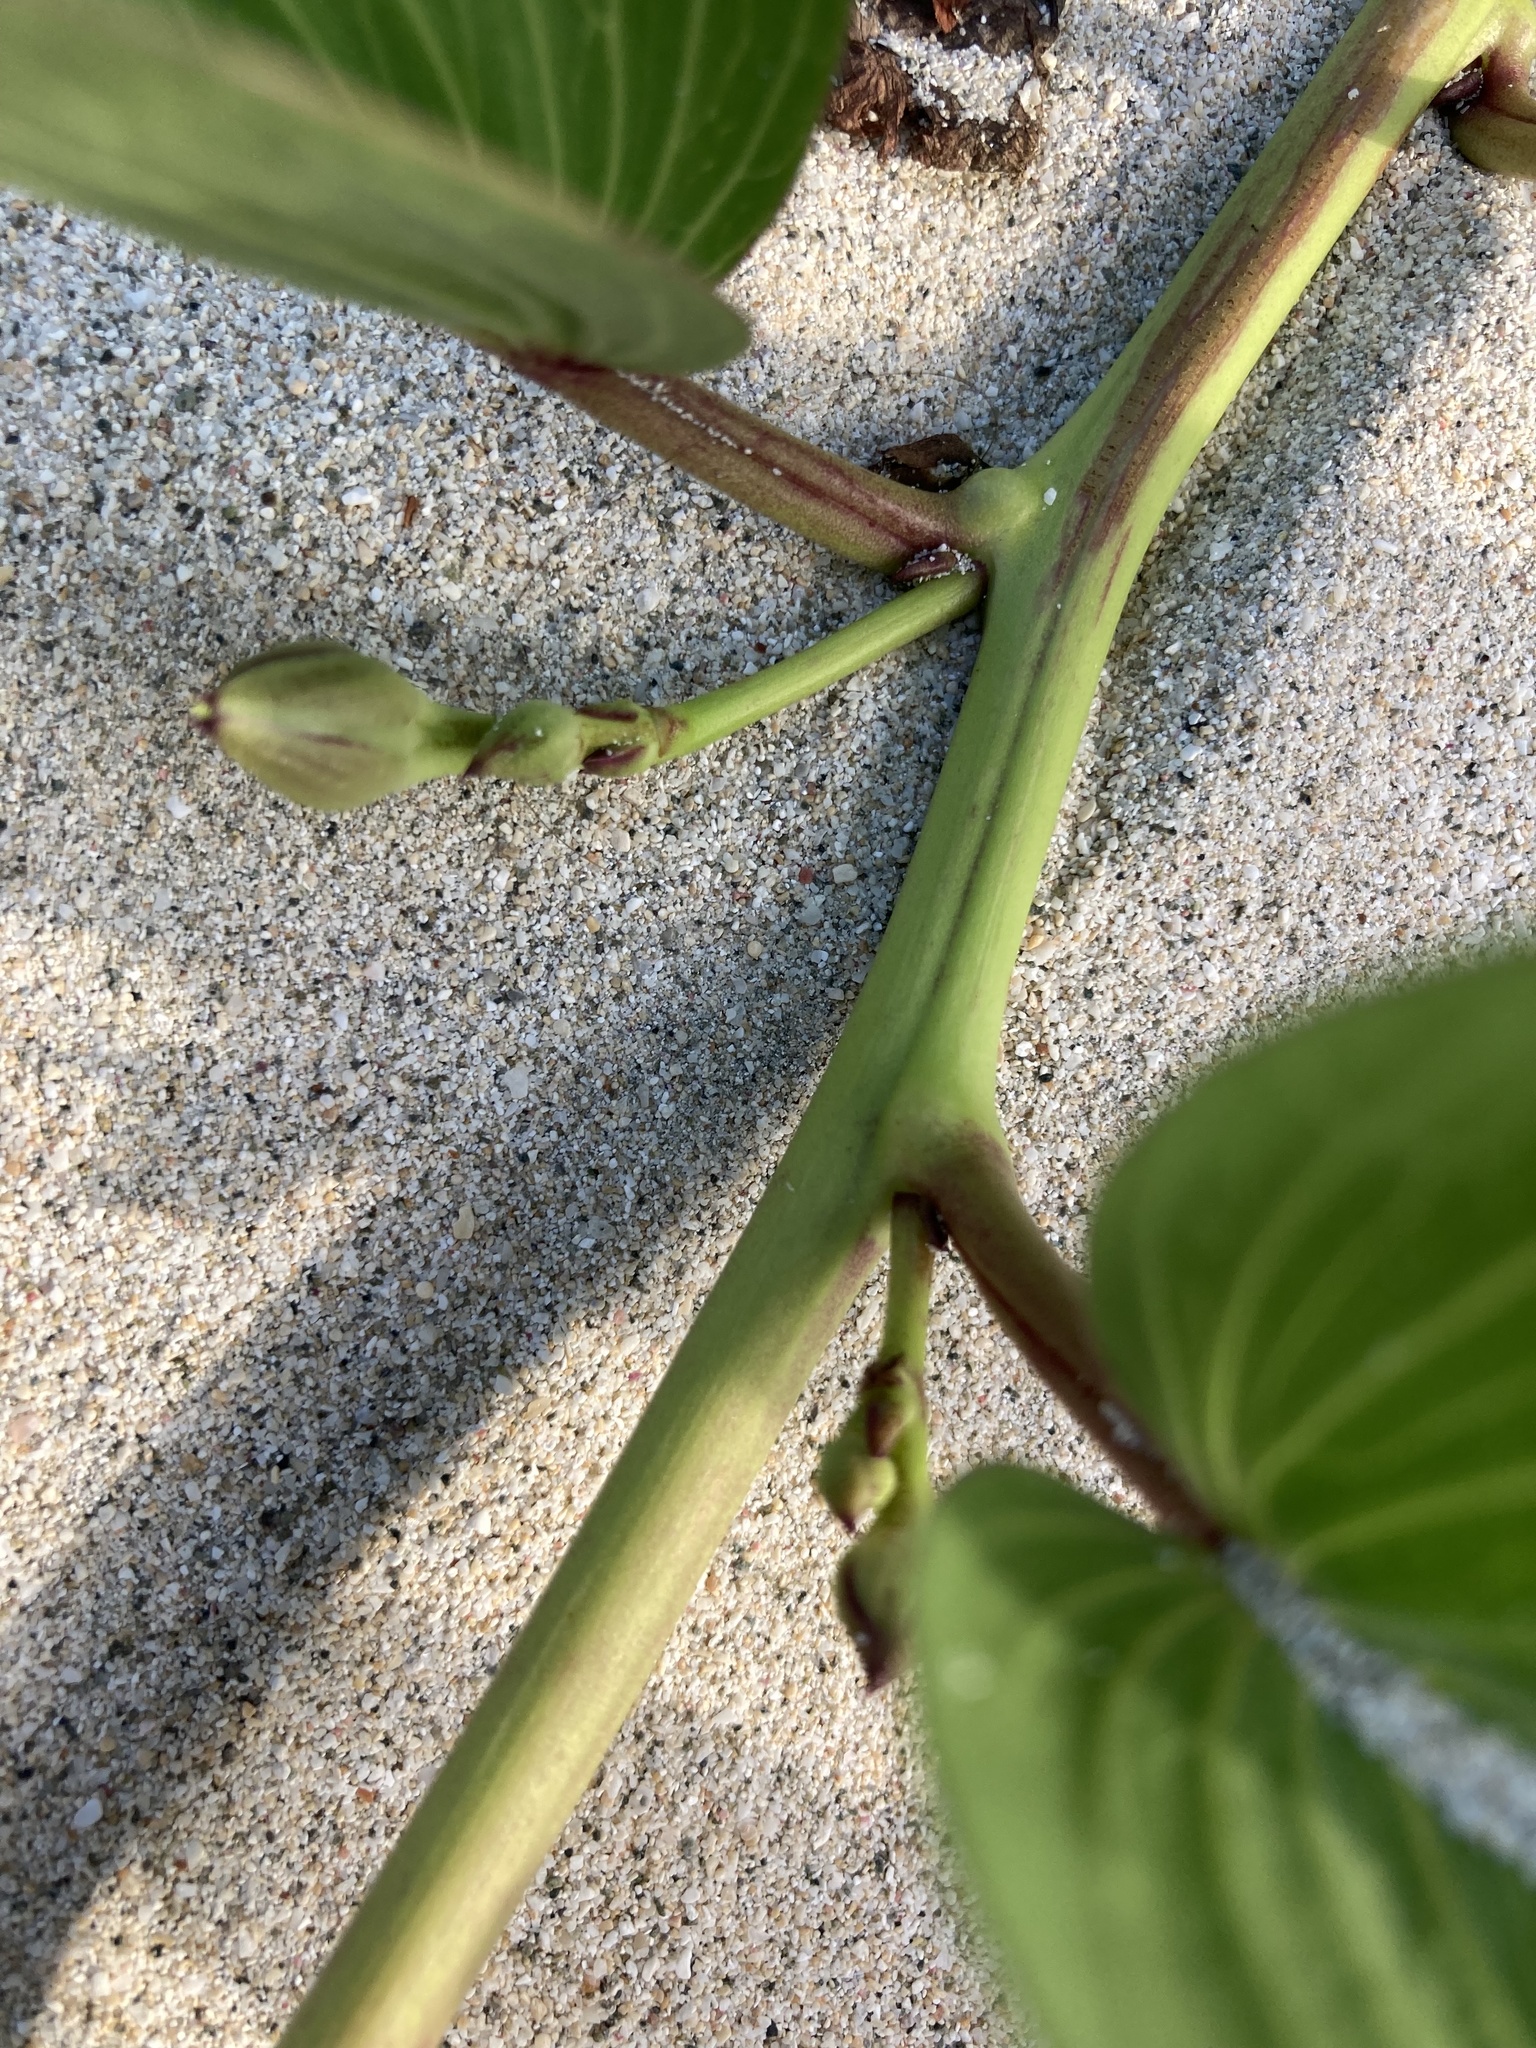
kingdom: Plantae
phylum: Tracheophyta
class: Magnoliopsida
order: Solanales
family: Convolvulaceae
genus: Ipomoea
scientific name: Ipomoea pes-caprae
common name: Beach morning glory
